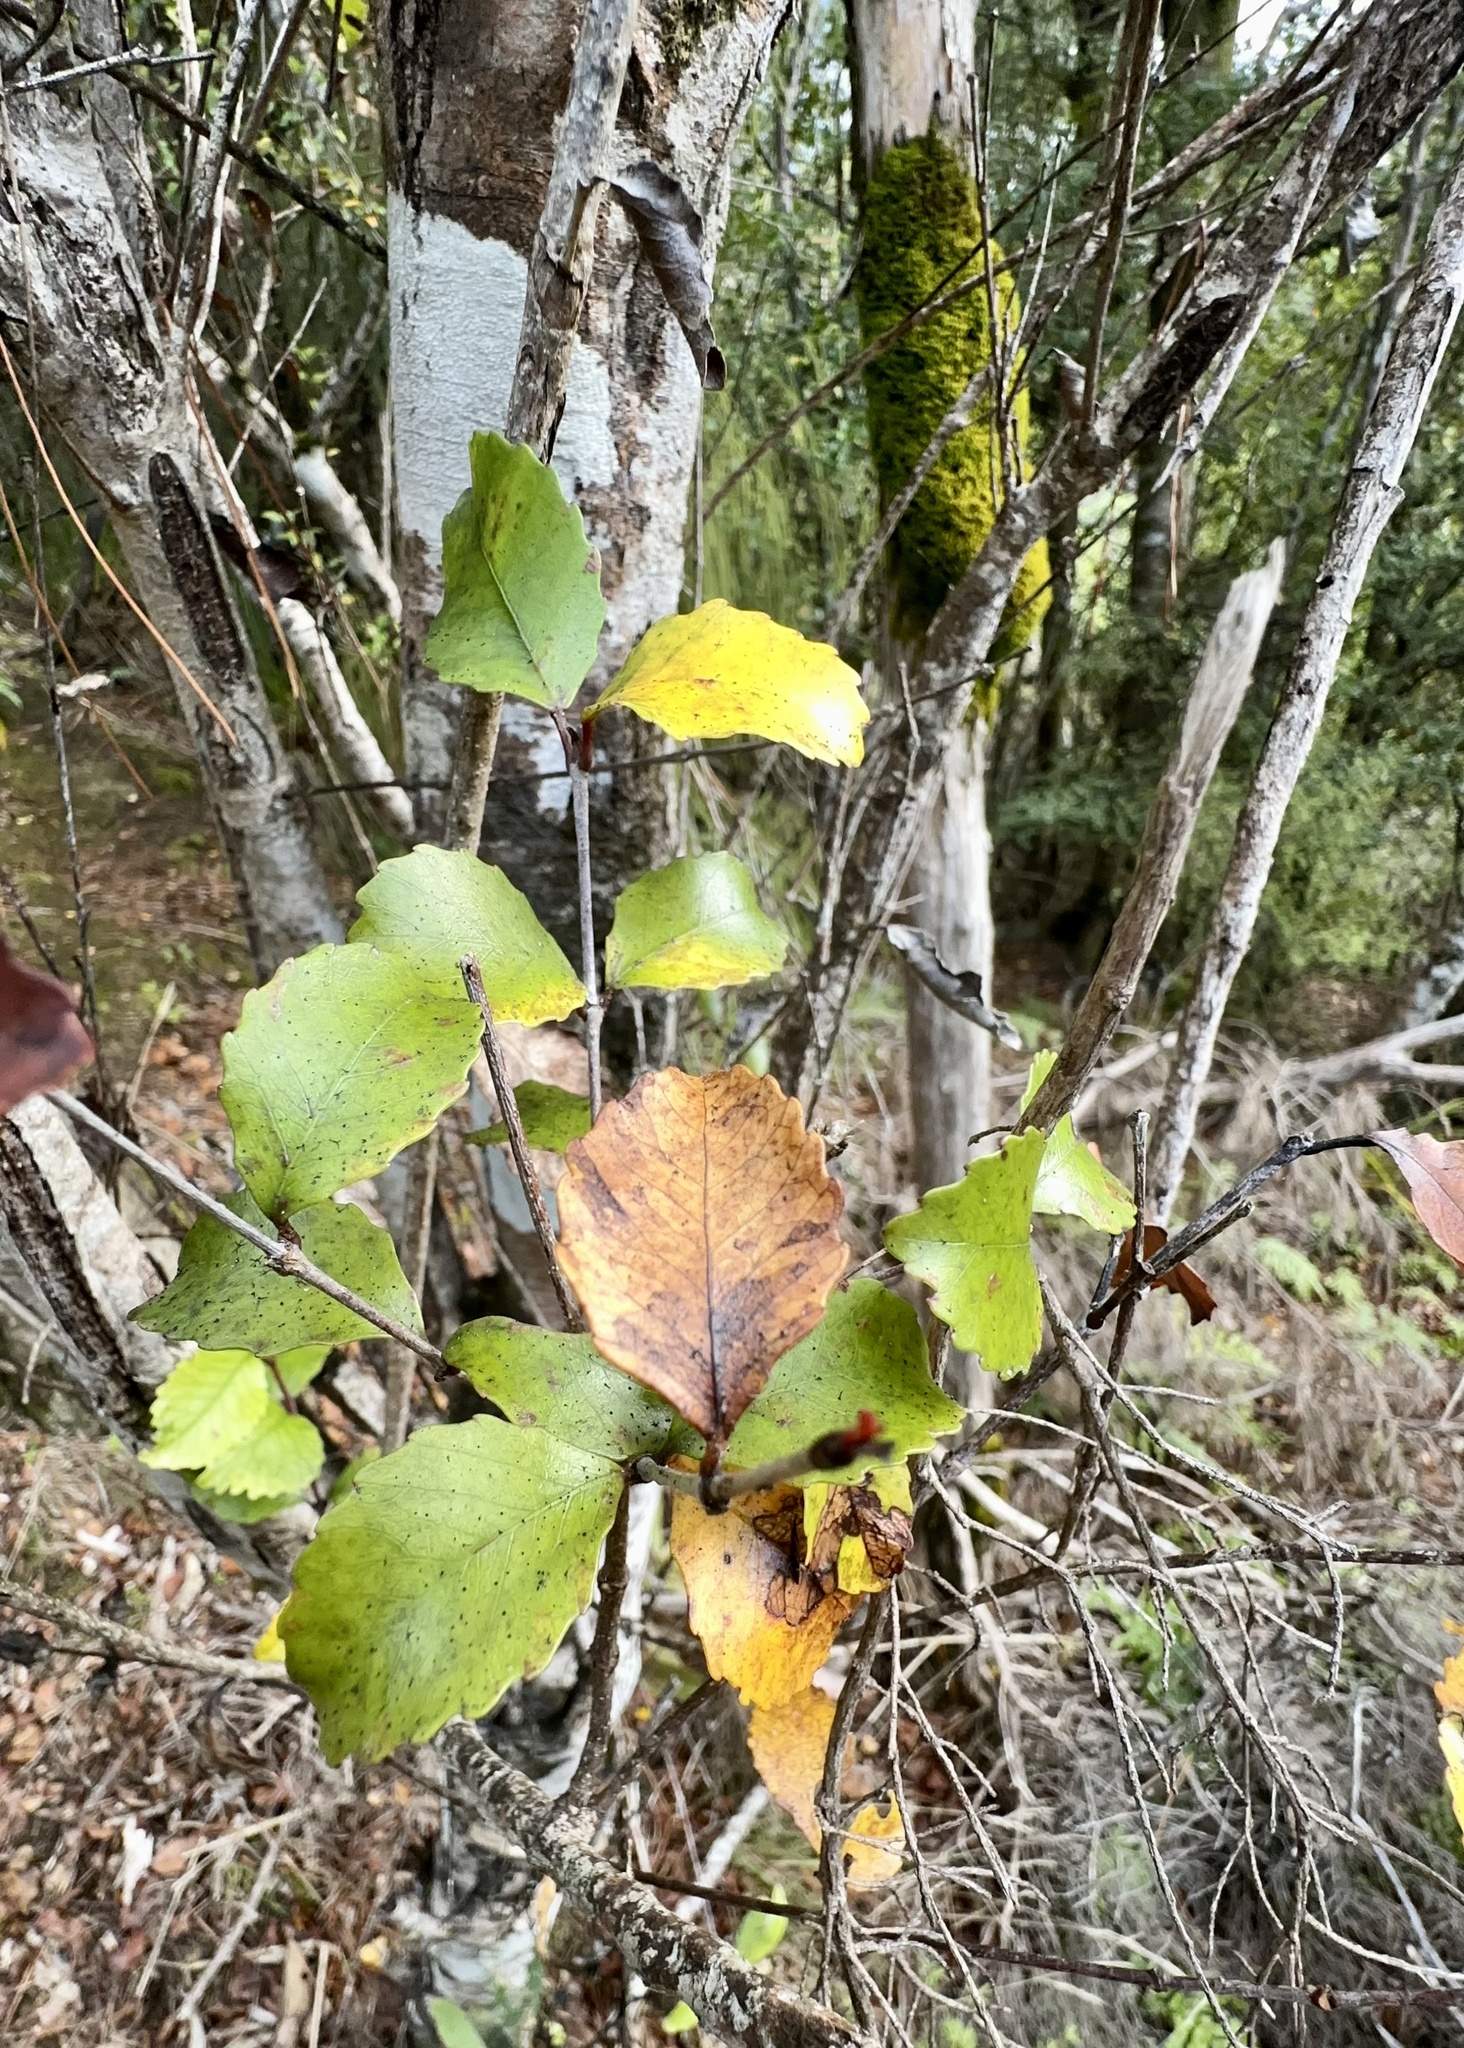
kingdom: Plantae
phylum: Tracheophyta
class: Magnoliopsida
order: Oxalidales
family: Cunoniaceae
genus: Pterophylla
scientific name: Pterophylla racemosa
